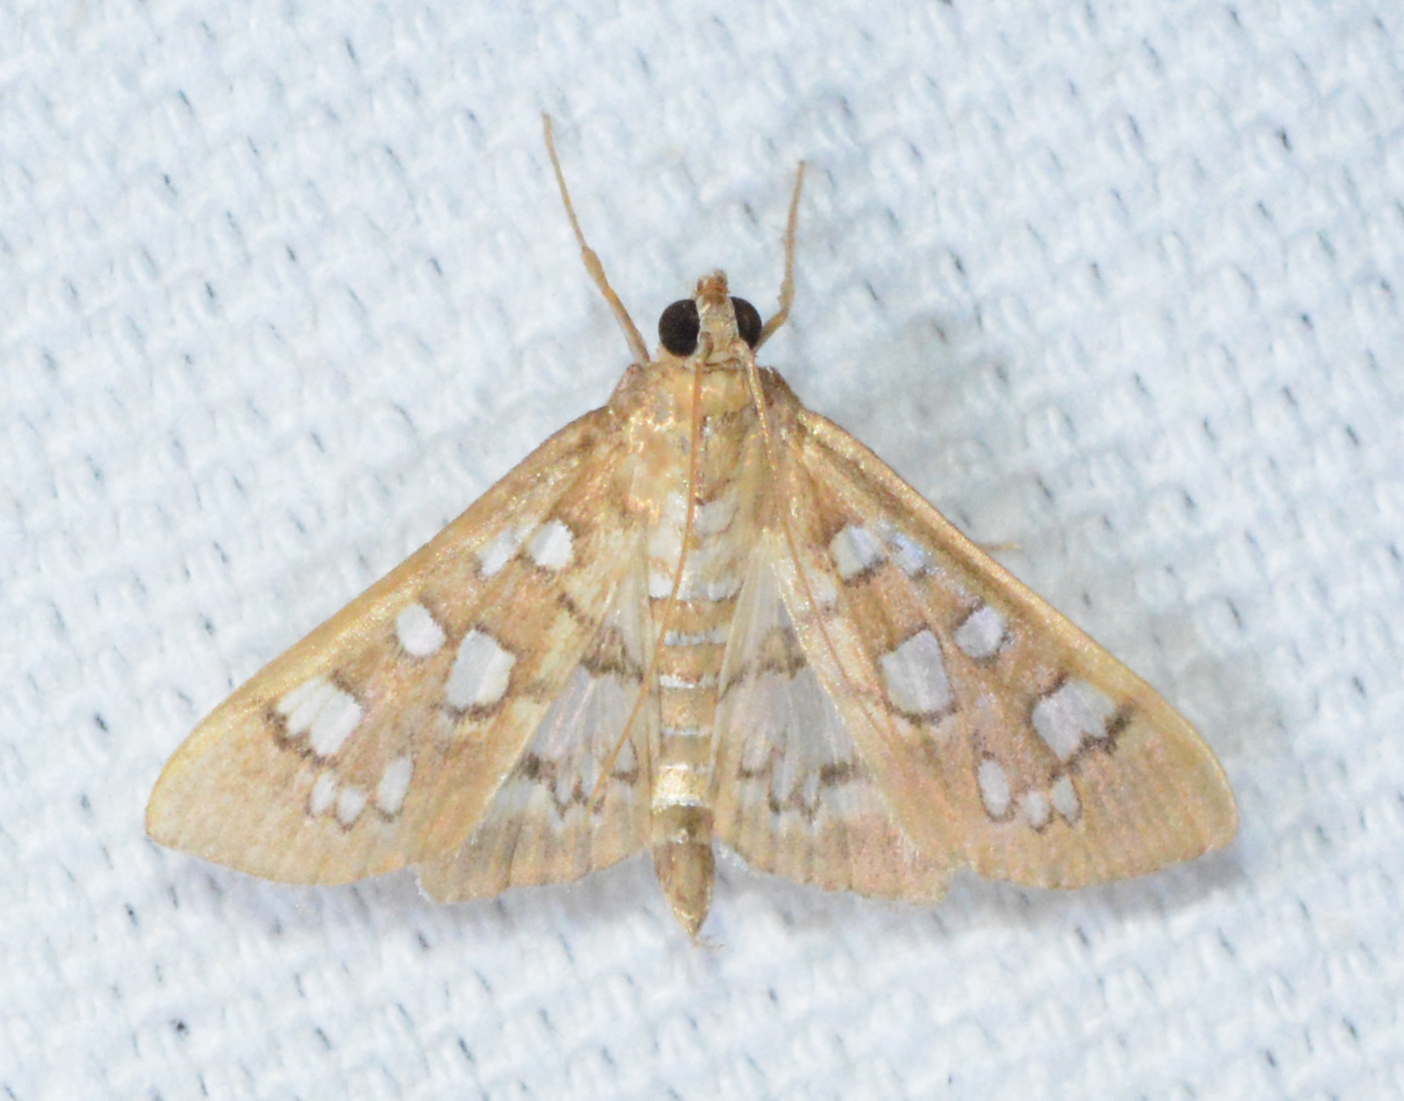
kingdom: Animalia
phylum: Arthropoda
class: Insecta
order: Lepidoptera
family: Crambidae
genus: Samea
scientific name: Samea baccatalis
